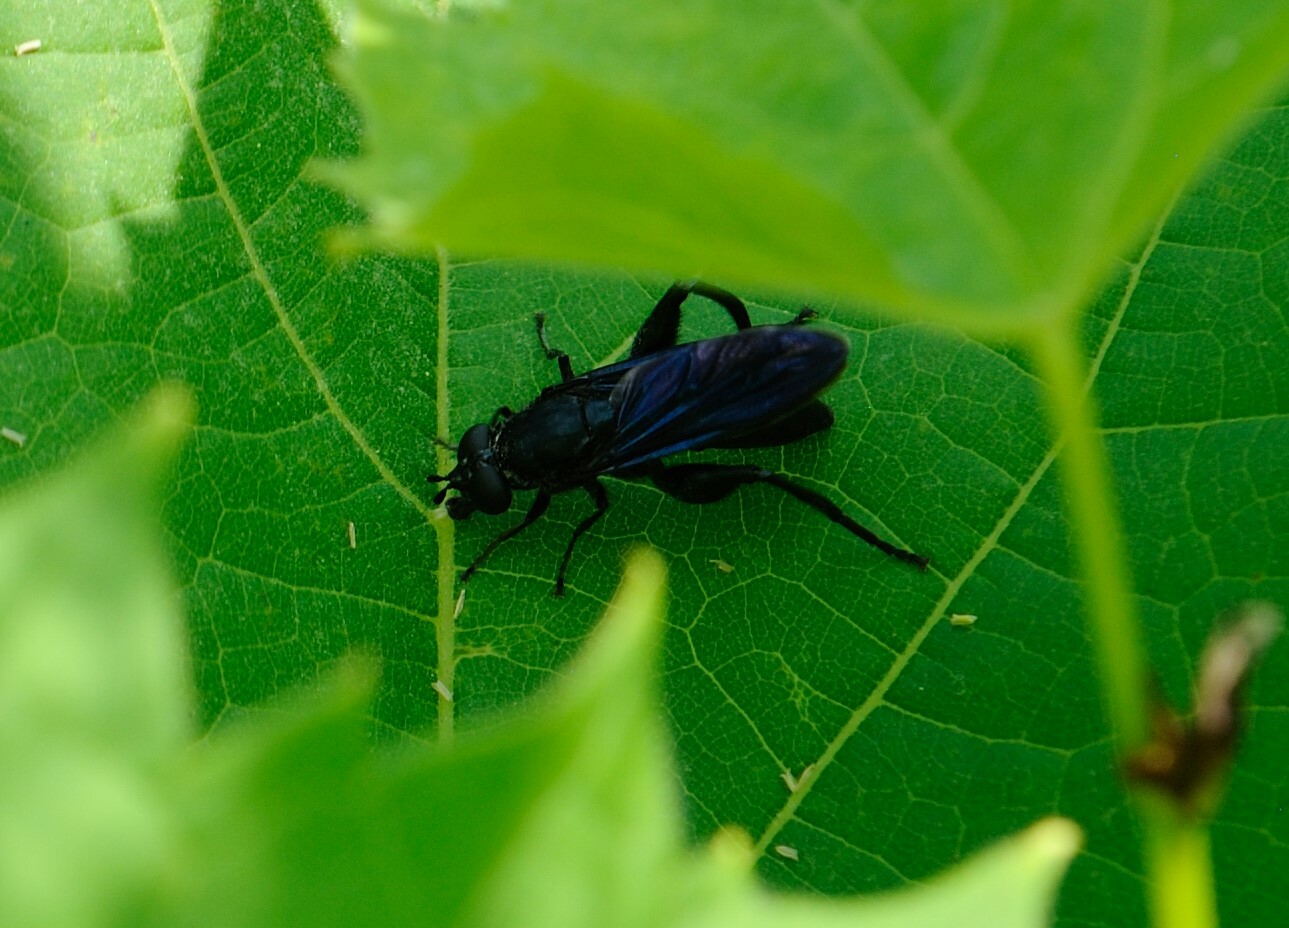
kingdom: Animalia
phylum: Arthropoda
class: Insecta
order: Diptera
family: Syrphidae
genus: Chalcosyrphus
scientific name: Chalcosyrphus chalybeus
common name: Violet leafwalker
